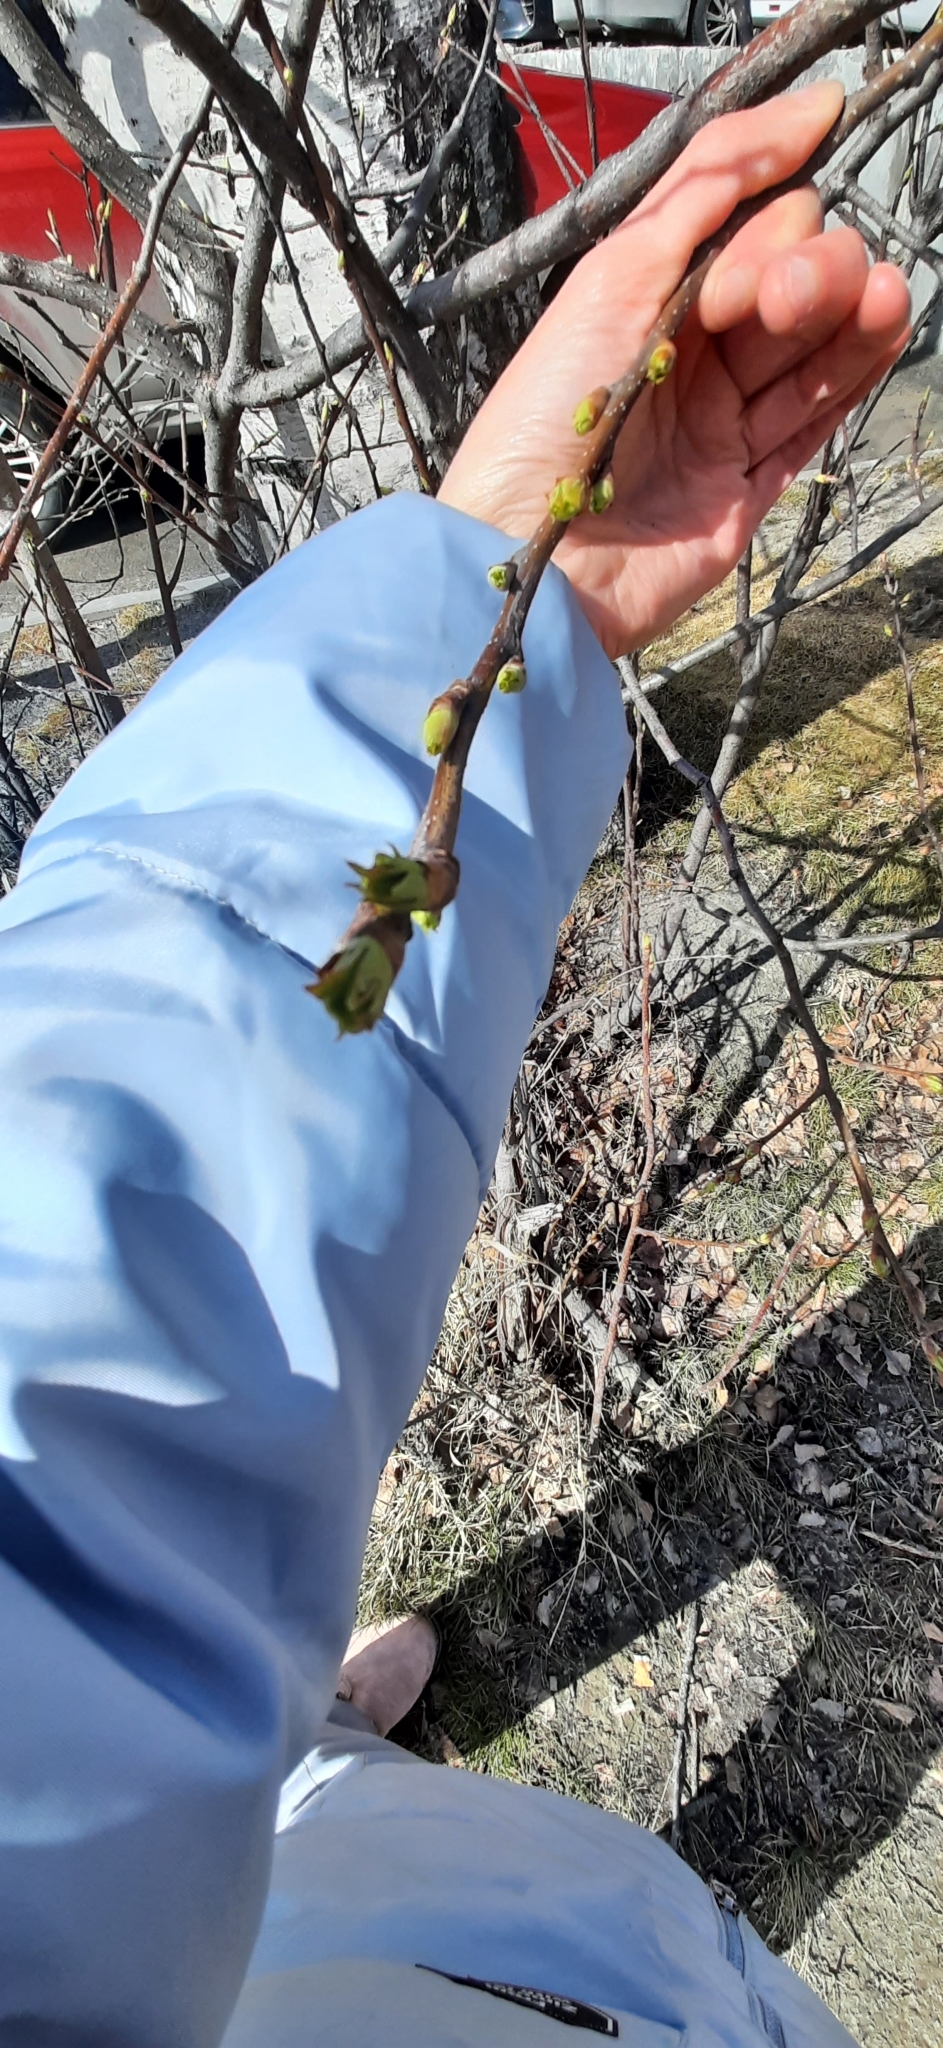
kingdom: Plantae
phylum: Tracheophyta
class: Magnoliopsida
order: Rosales
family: Rosaceae
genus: Prunus
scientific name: Prunus padus
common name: Bird cherry
